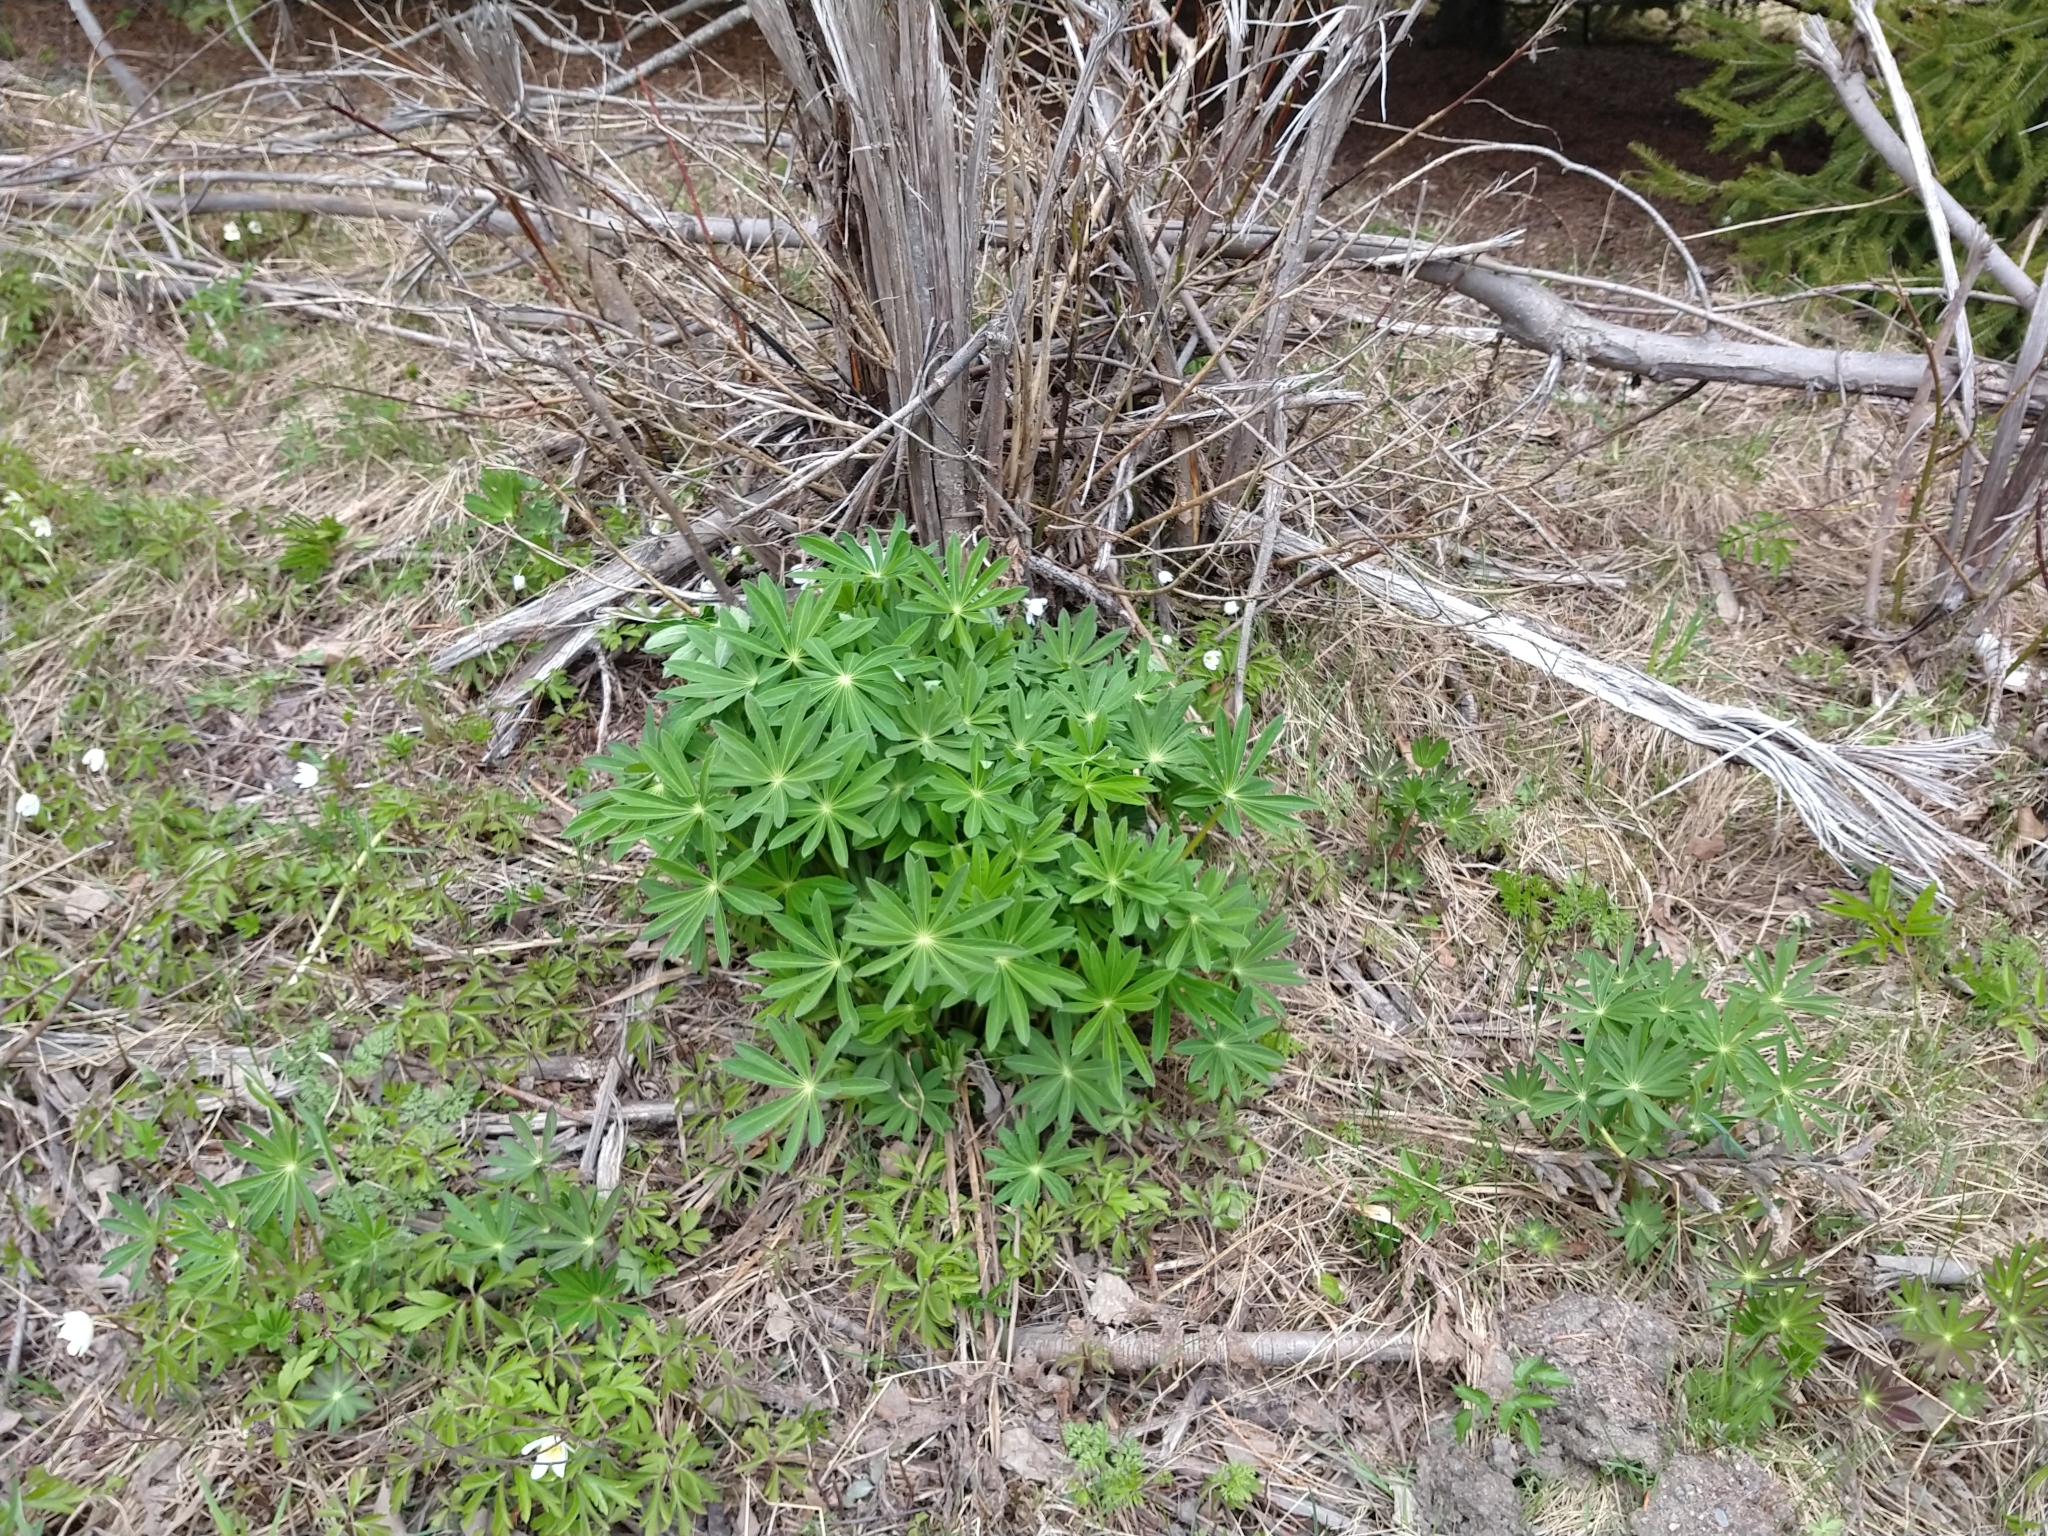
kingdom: Plantae
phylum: Tracheophyta
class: Magnoliopsida
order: Fabales
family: Fabaceae
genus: Lupinus
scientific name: Lupinus polyphyllus
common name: Garden lupin
